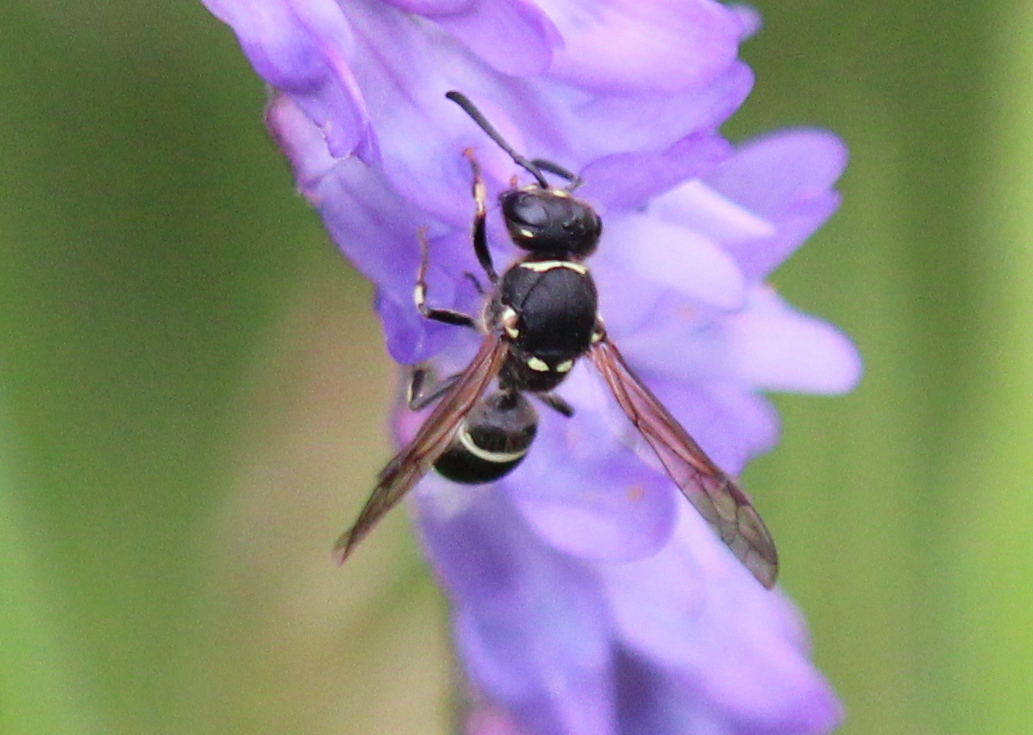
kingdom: Animalia
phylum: Arthropoda
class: Insecta
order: Hymenoptera
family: Vespidae
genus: Ancistrocerus
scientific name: Ancistrocerus albophaleratus
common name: White-banded potter wasp
